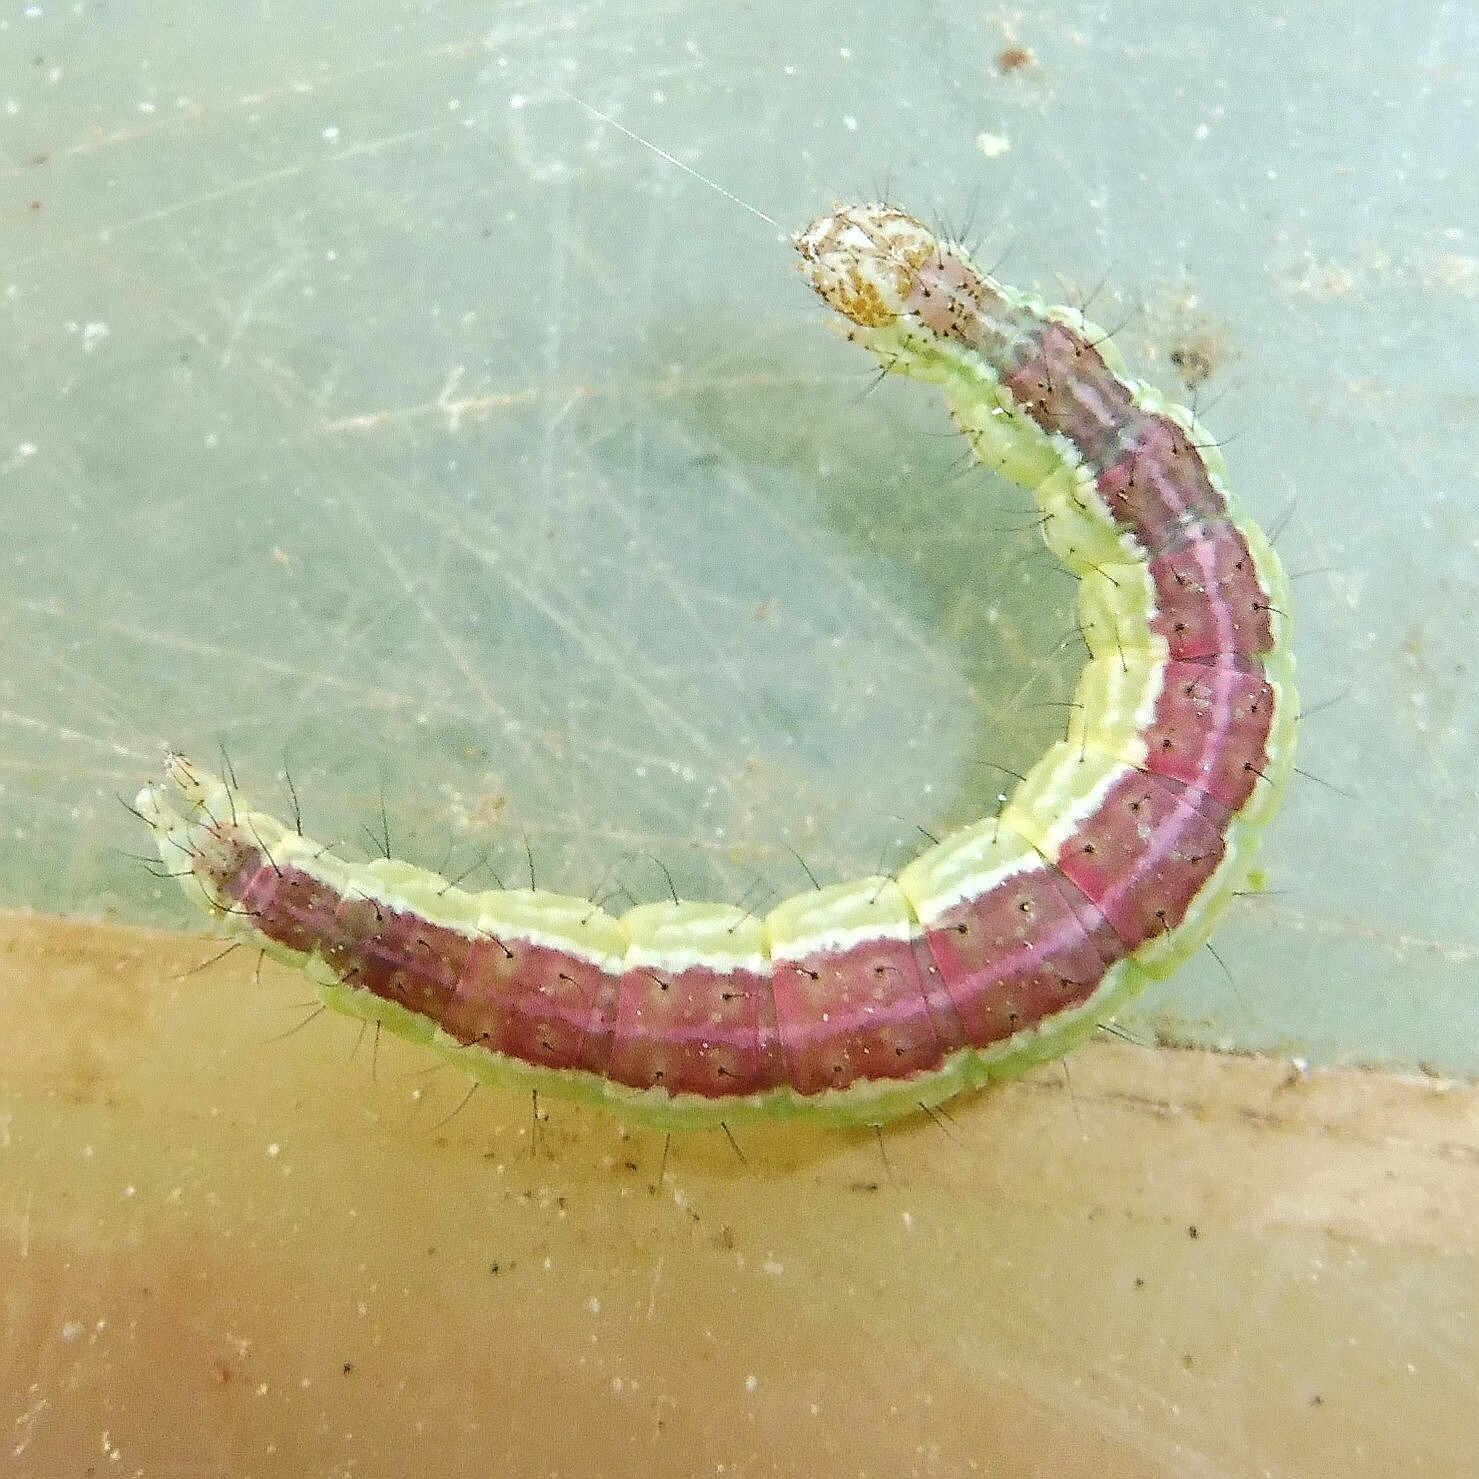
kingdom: Animalia
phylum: Arthropoda
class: Insecta
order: Lepidoptera
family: Ypsolophidae
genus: Ypsolopha
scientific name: Ypsolopha dentella
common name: Honeysuckle moth
